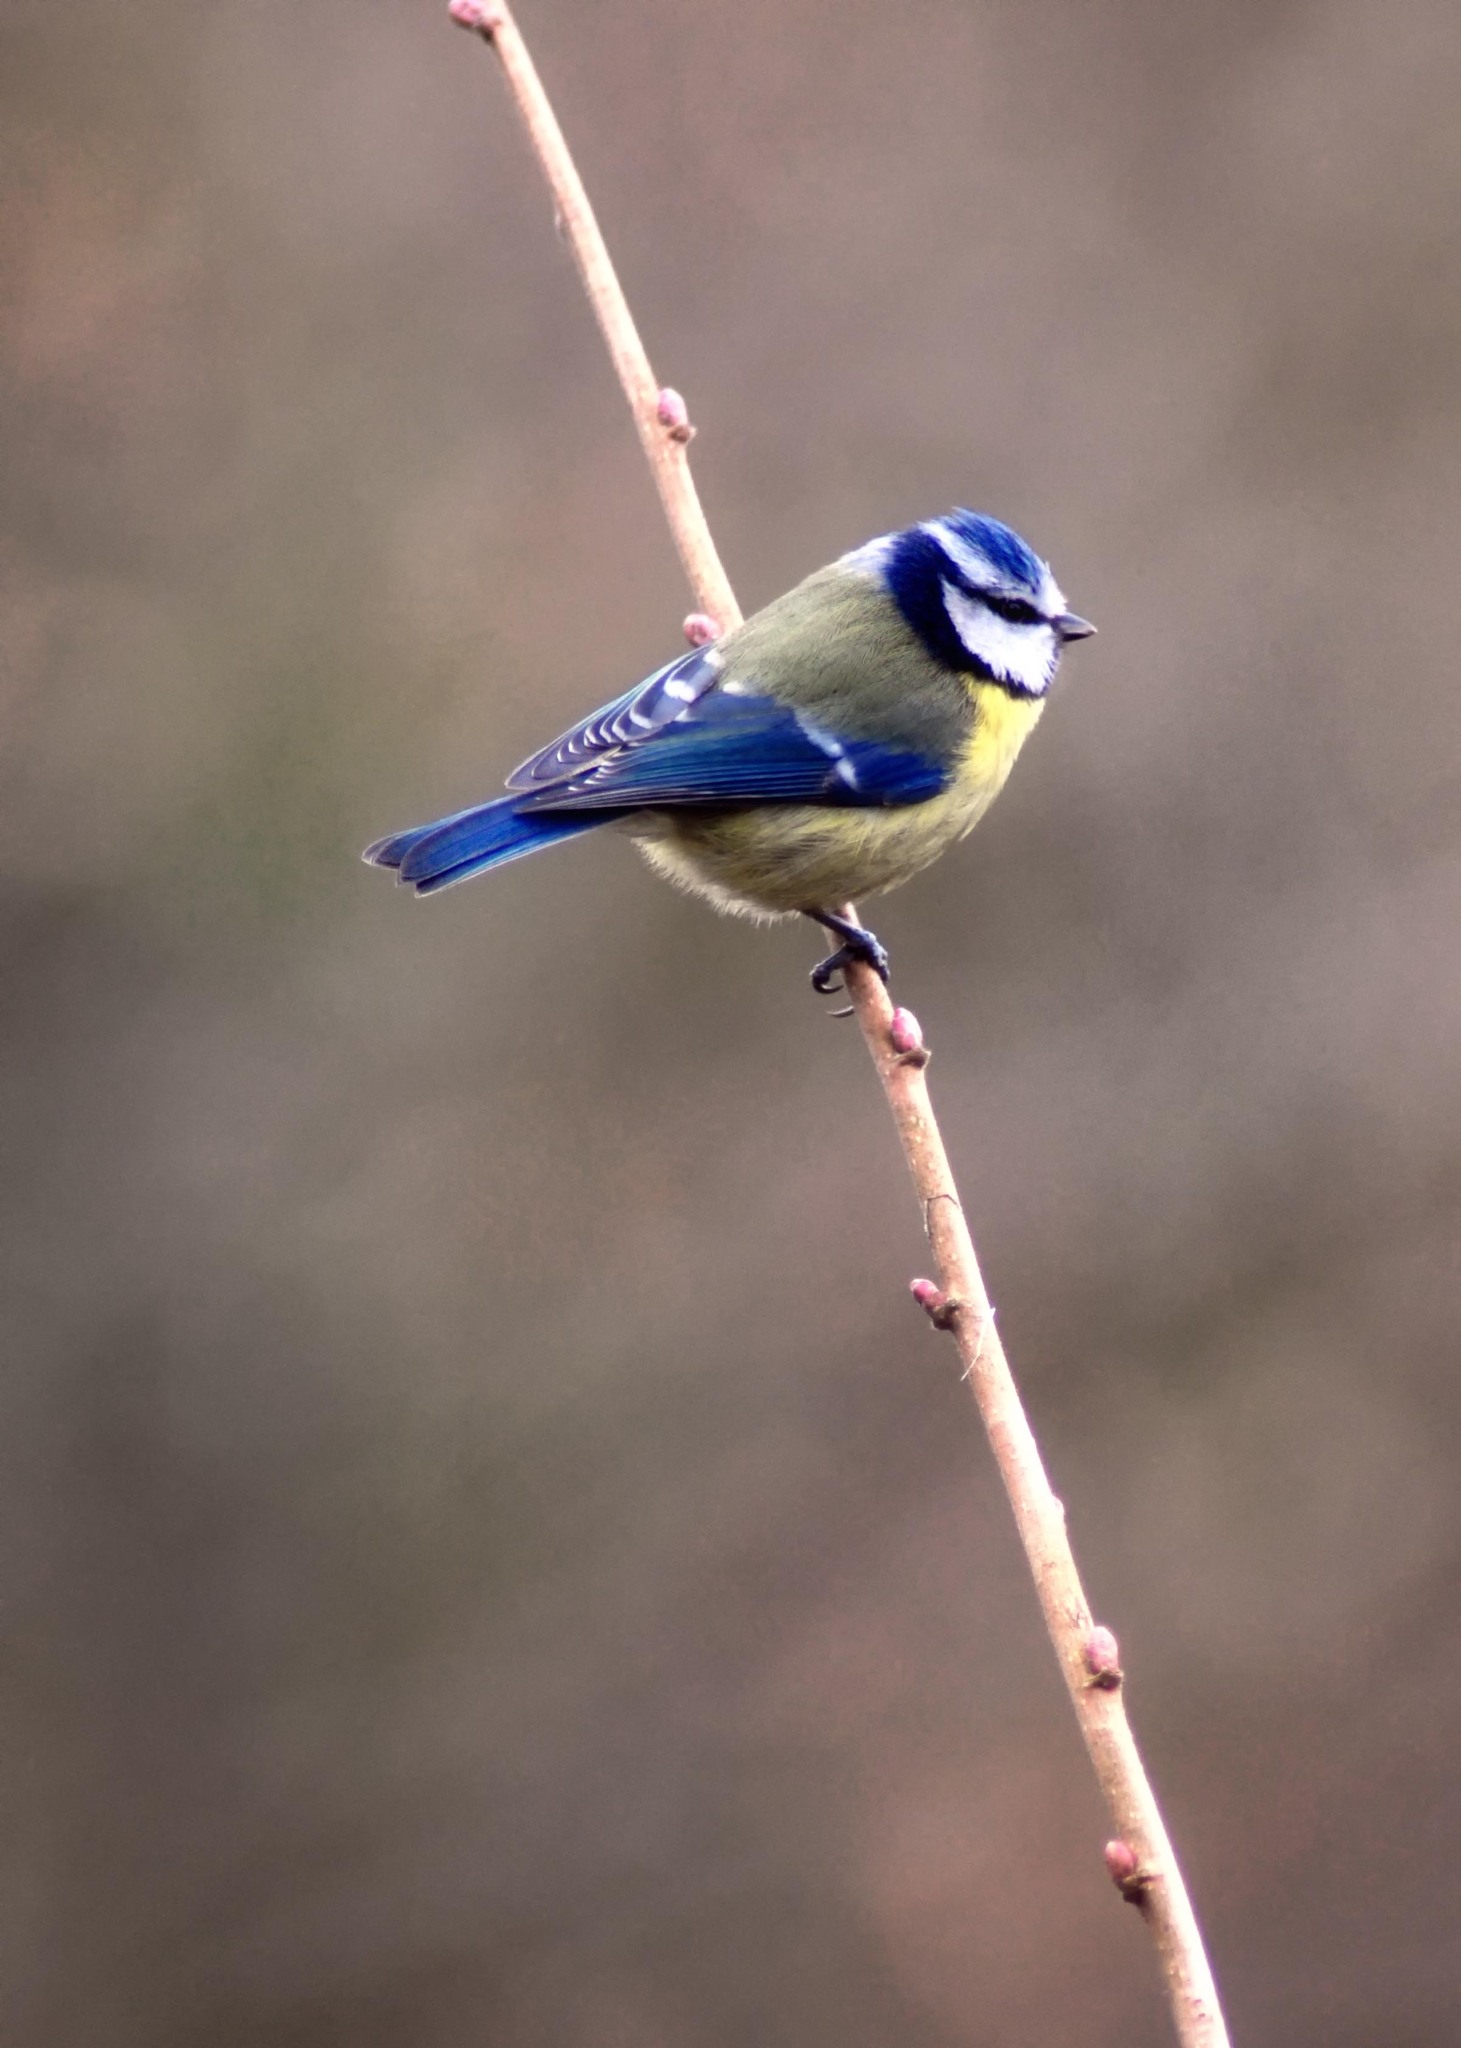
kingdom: Animalia
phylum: Chordata
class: Aves
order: Passeriformes
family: Paridae
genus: Cyanistes
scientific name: Cyanistes caeruleus
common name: Eurasian blue tit
